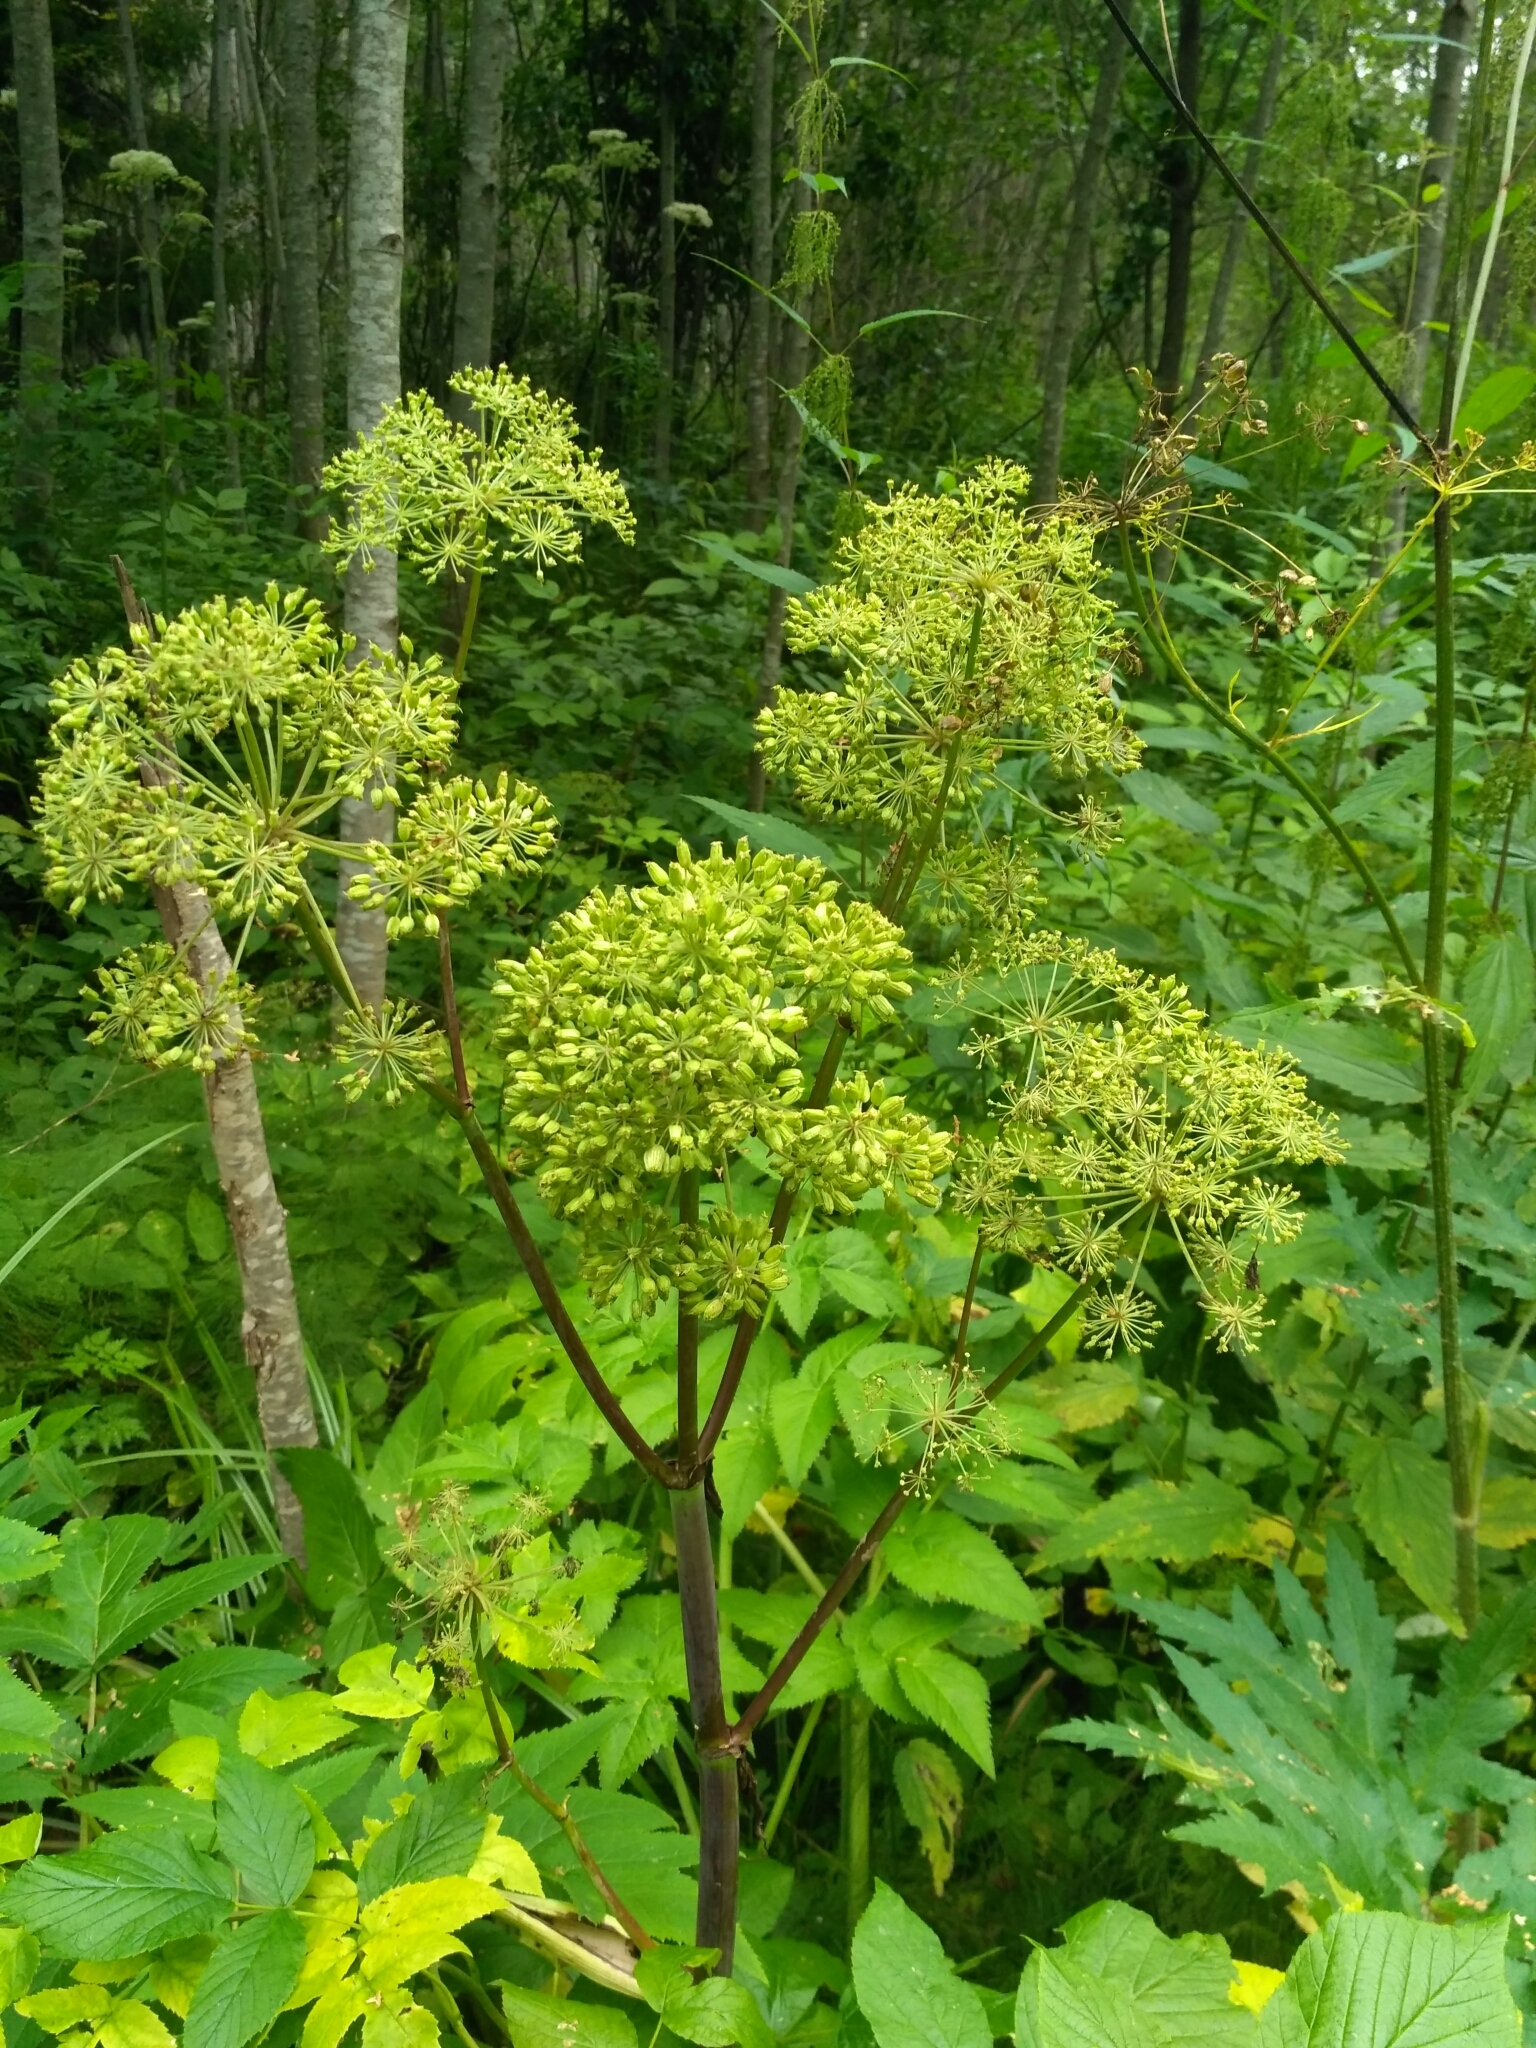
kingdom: Plantae
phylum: Tracheophyta
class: Magnoliopsida
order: Apiales
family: Apiaceae
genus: Angelica
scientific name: Angelica archangelica
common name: Garden angelica
